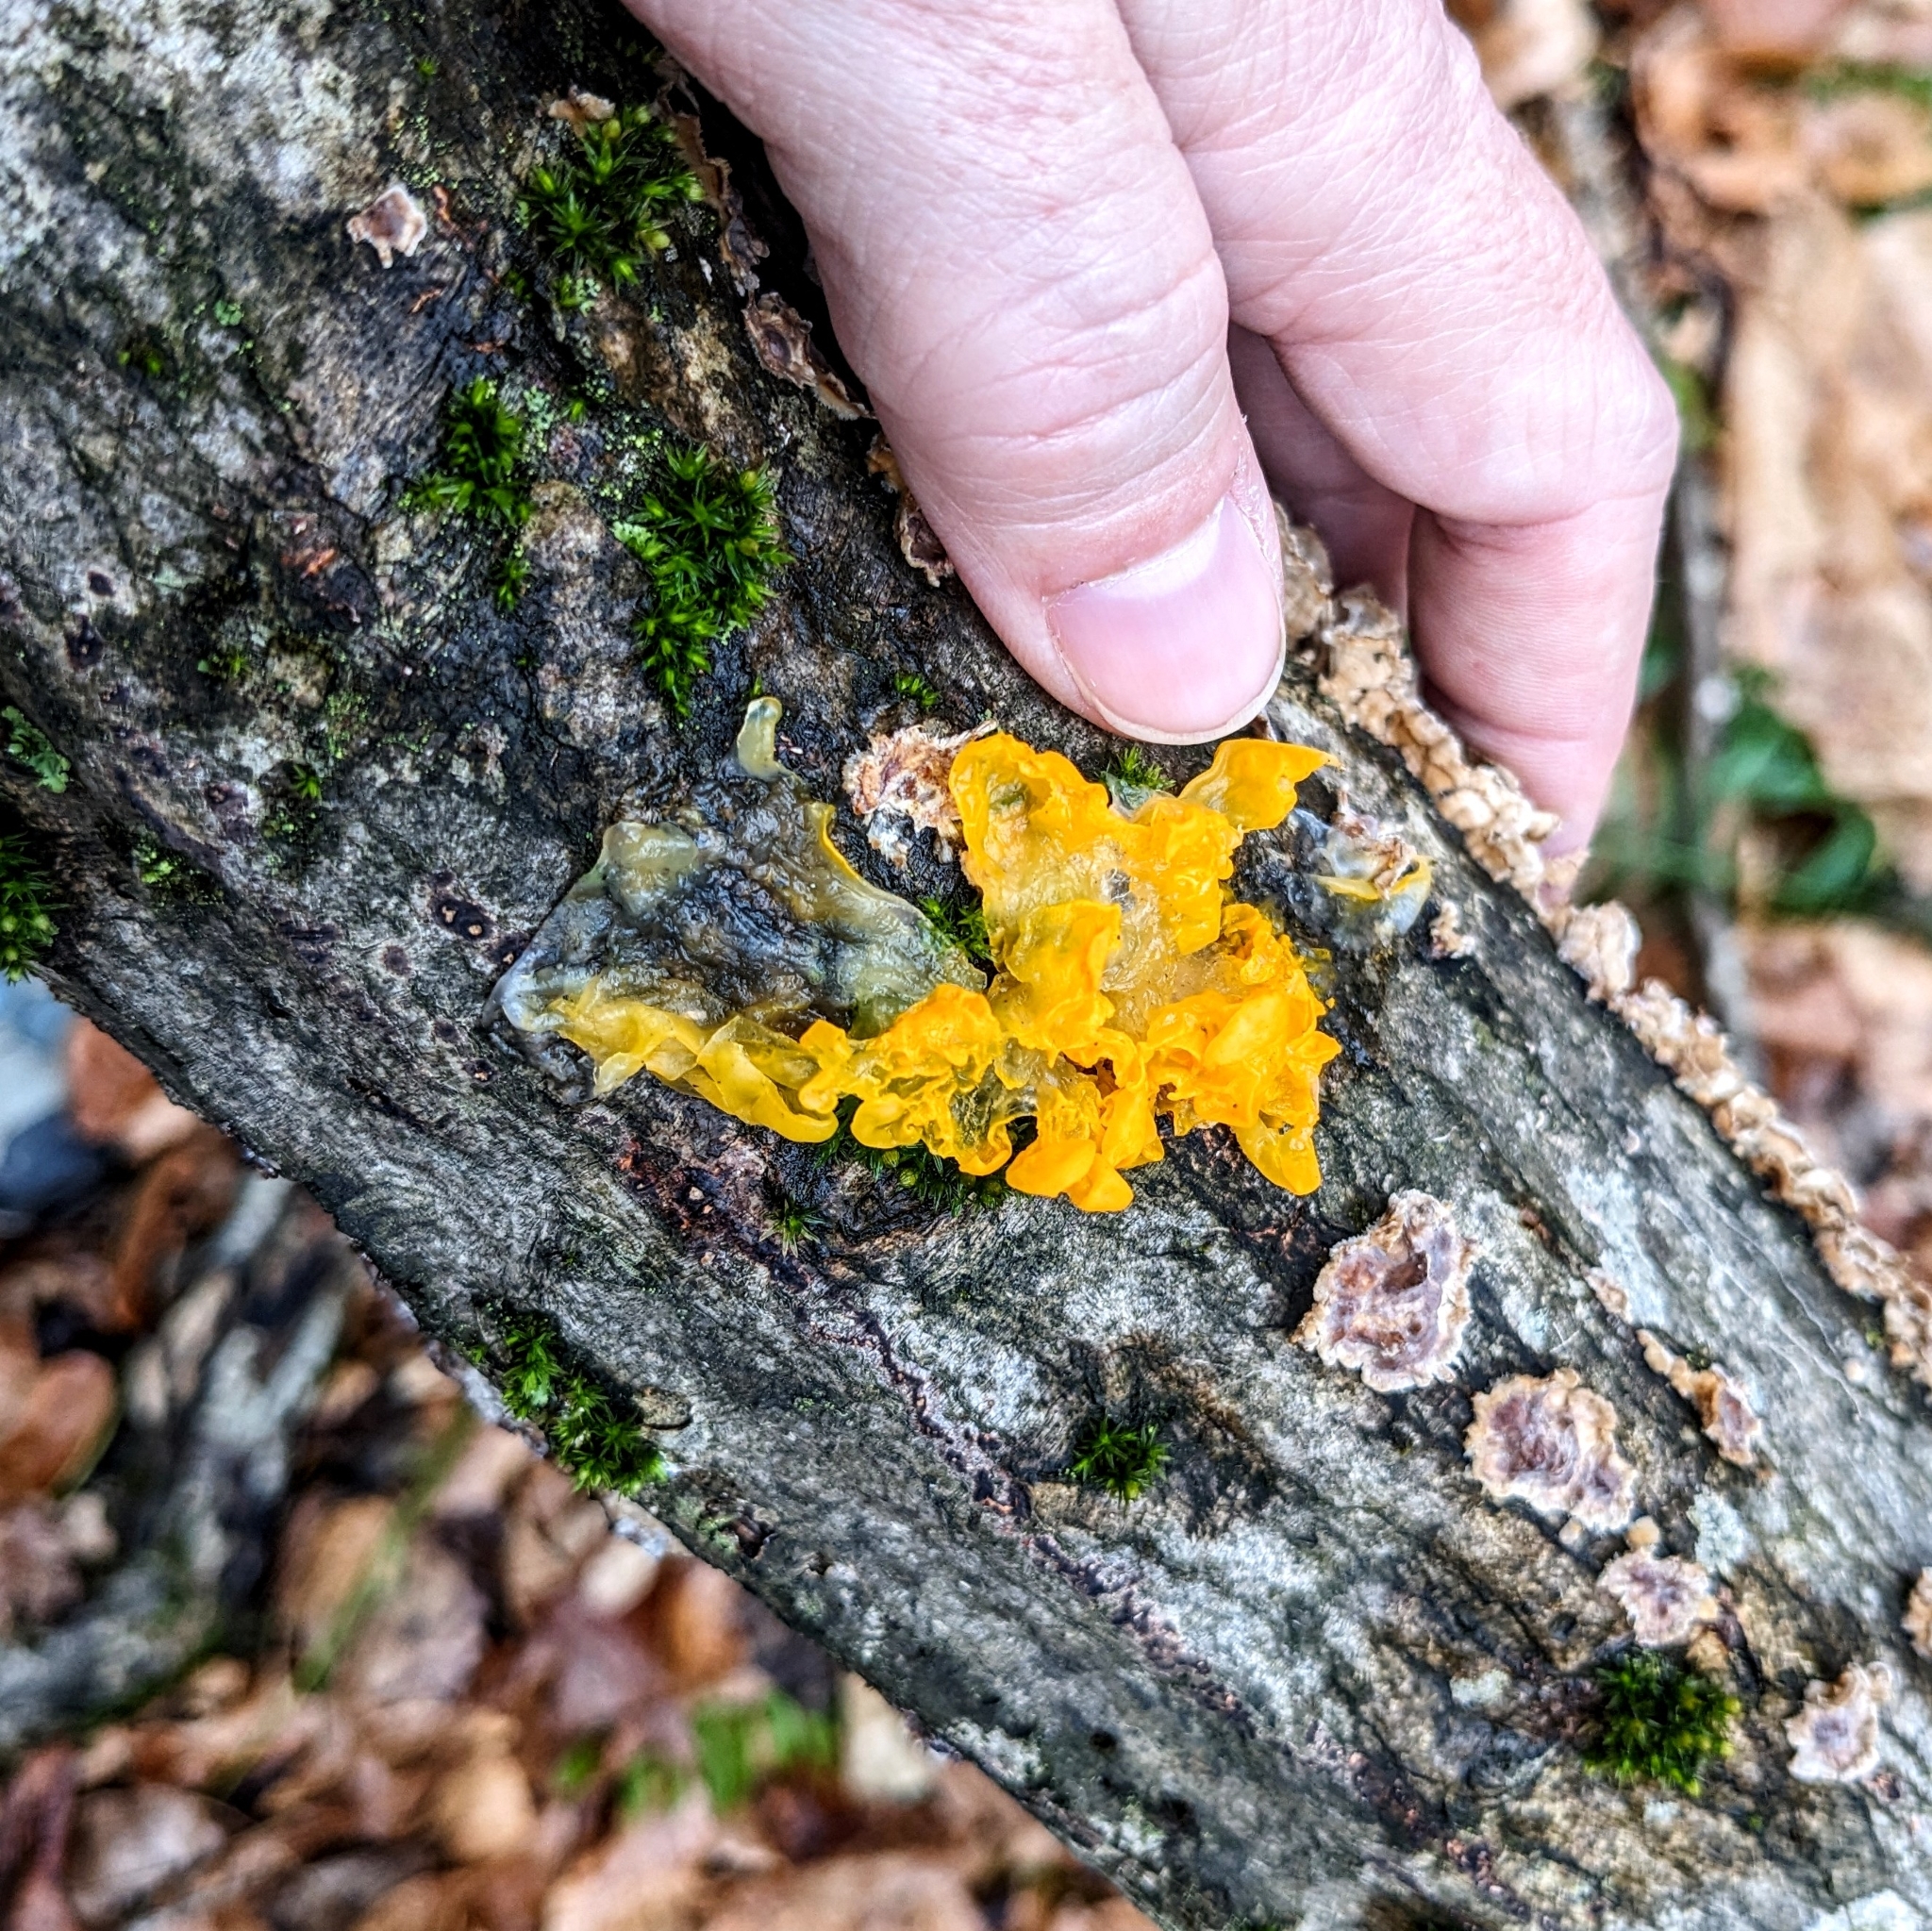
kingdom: Fungi
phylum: Basidiomycota
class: Tremellomycetes
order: Tremellales
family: Tremellaceae
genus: Tremella
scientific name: Tremella mesenterica
